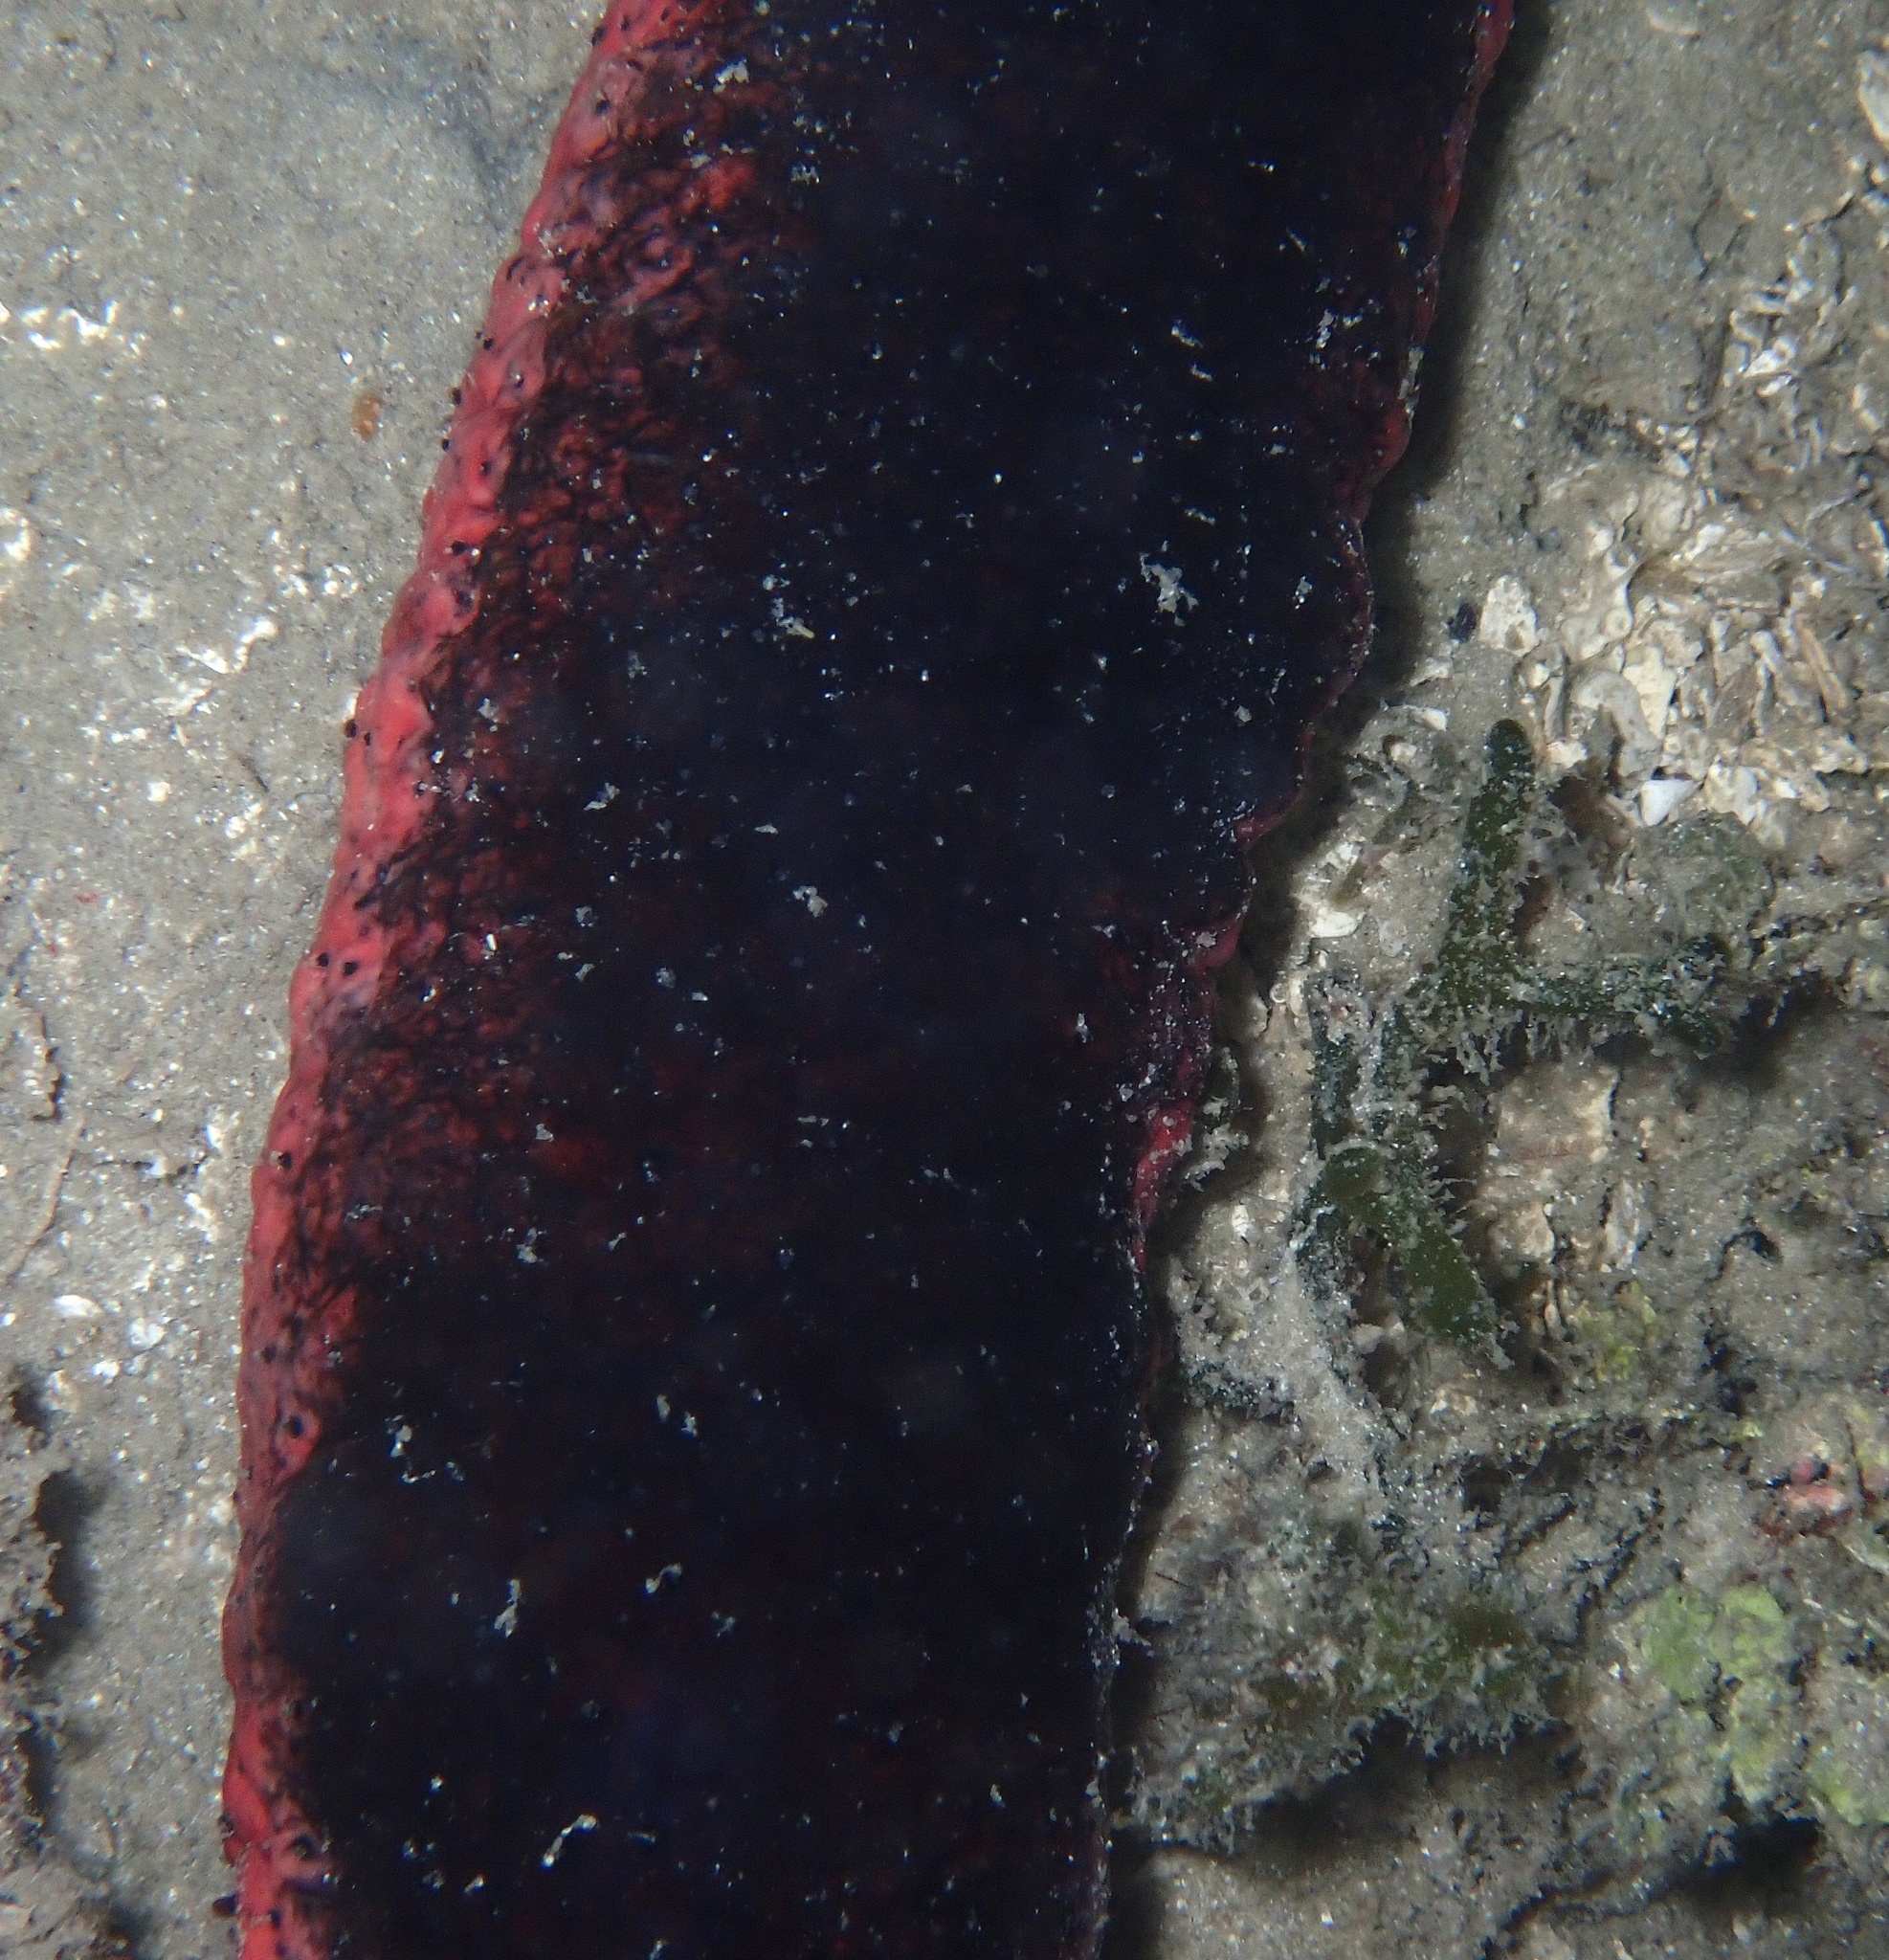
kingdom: Animalia
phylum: Echinodermata
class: Holothuroidea
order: Holothuriida
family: Holothuriidae
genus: Holothuria
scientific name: Holothuria edulis
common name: Pinkfish
